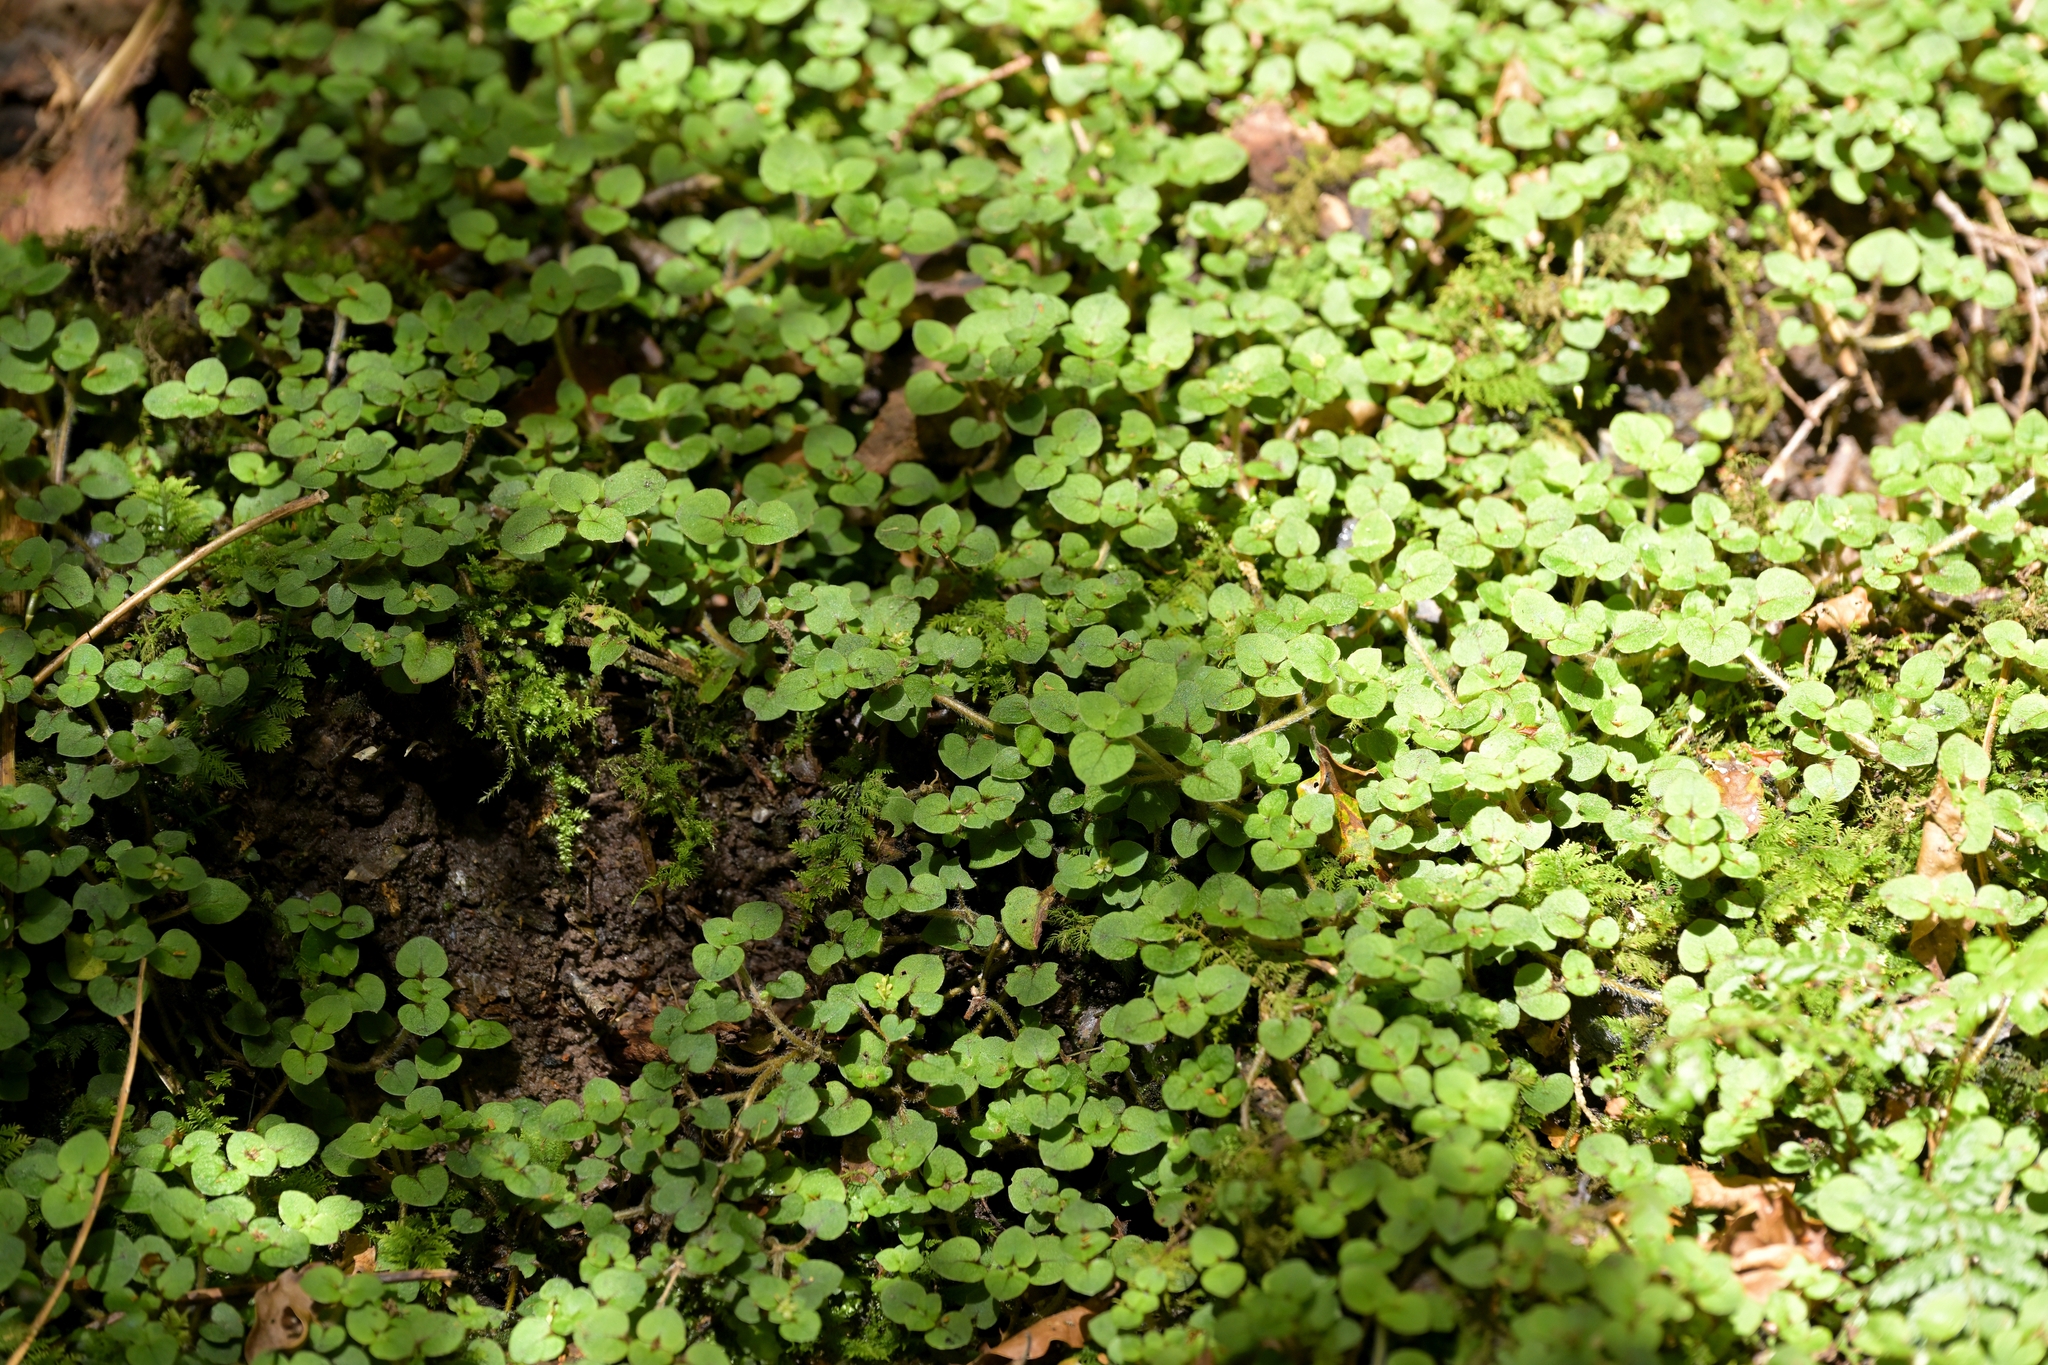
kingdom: Plantae
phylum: Tracheophyta
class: Magnoliopsida
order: Gentianales
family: Rubiaceae
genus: Nertera
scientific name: Nertera villosa
